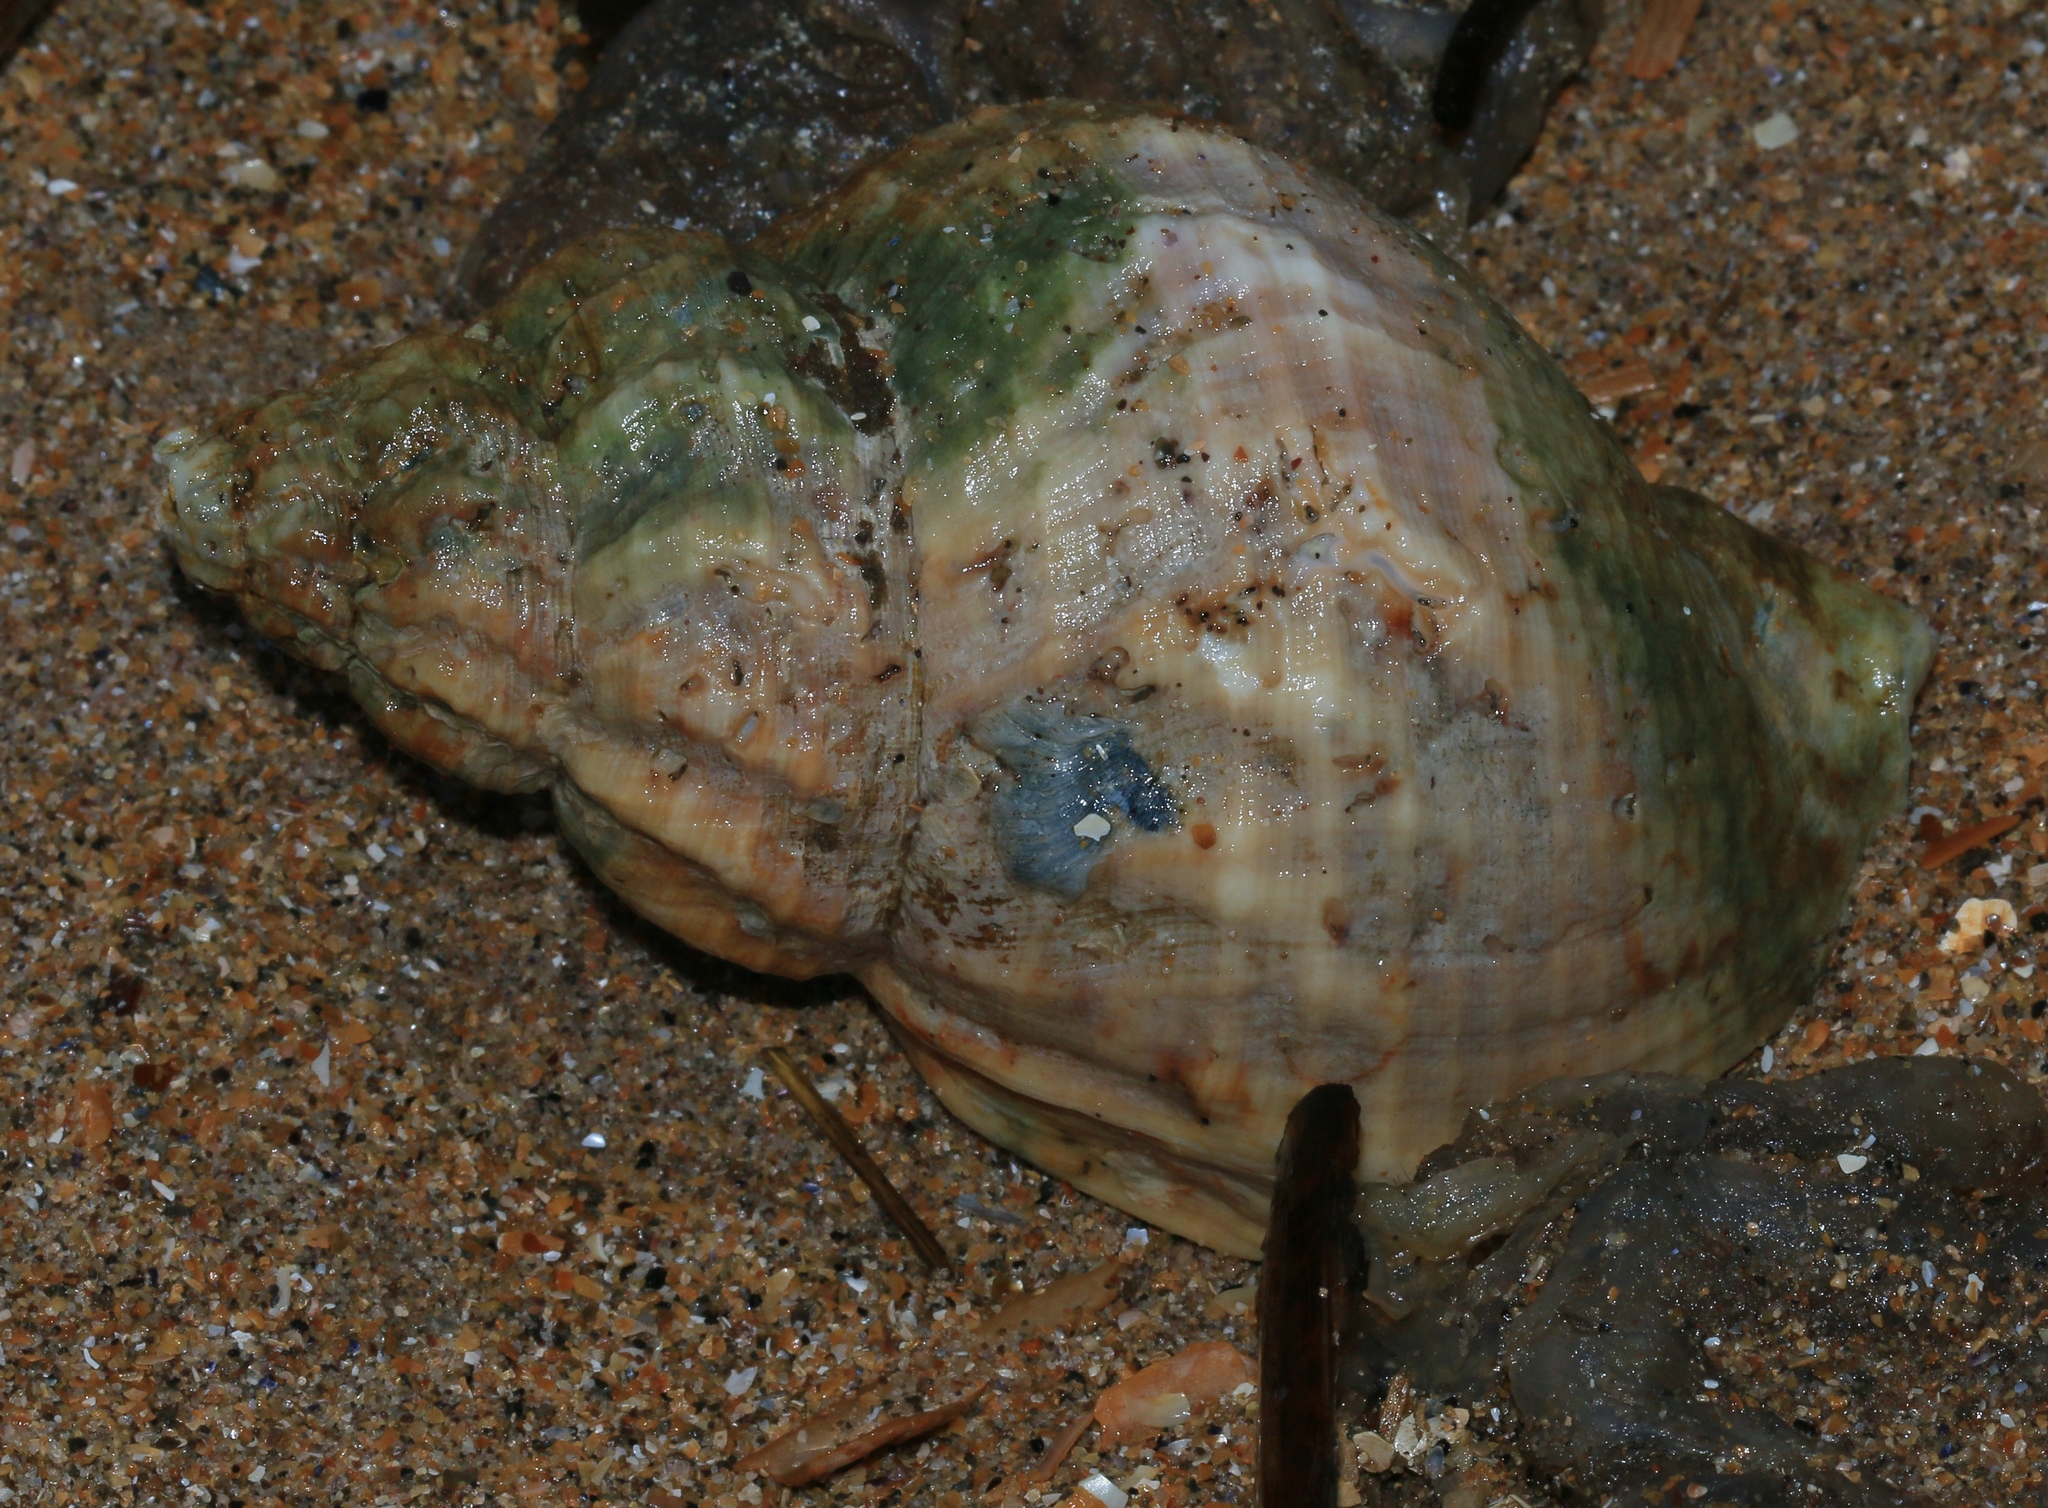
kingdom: Animalia
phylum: Mollusca
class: Gastropoda
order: Neogastropoda
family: Buccinidae
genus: Buccinum
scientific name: Buccinum undatum
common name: Common whelk
